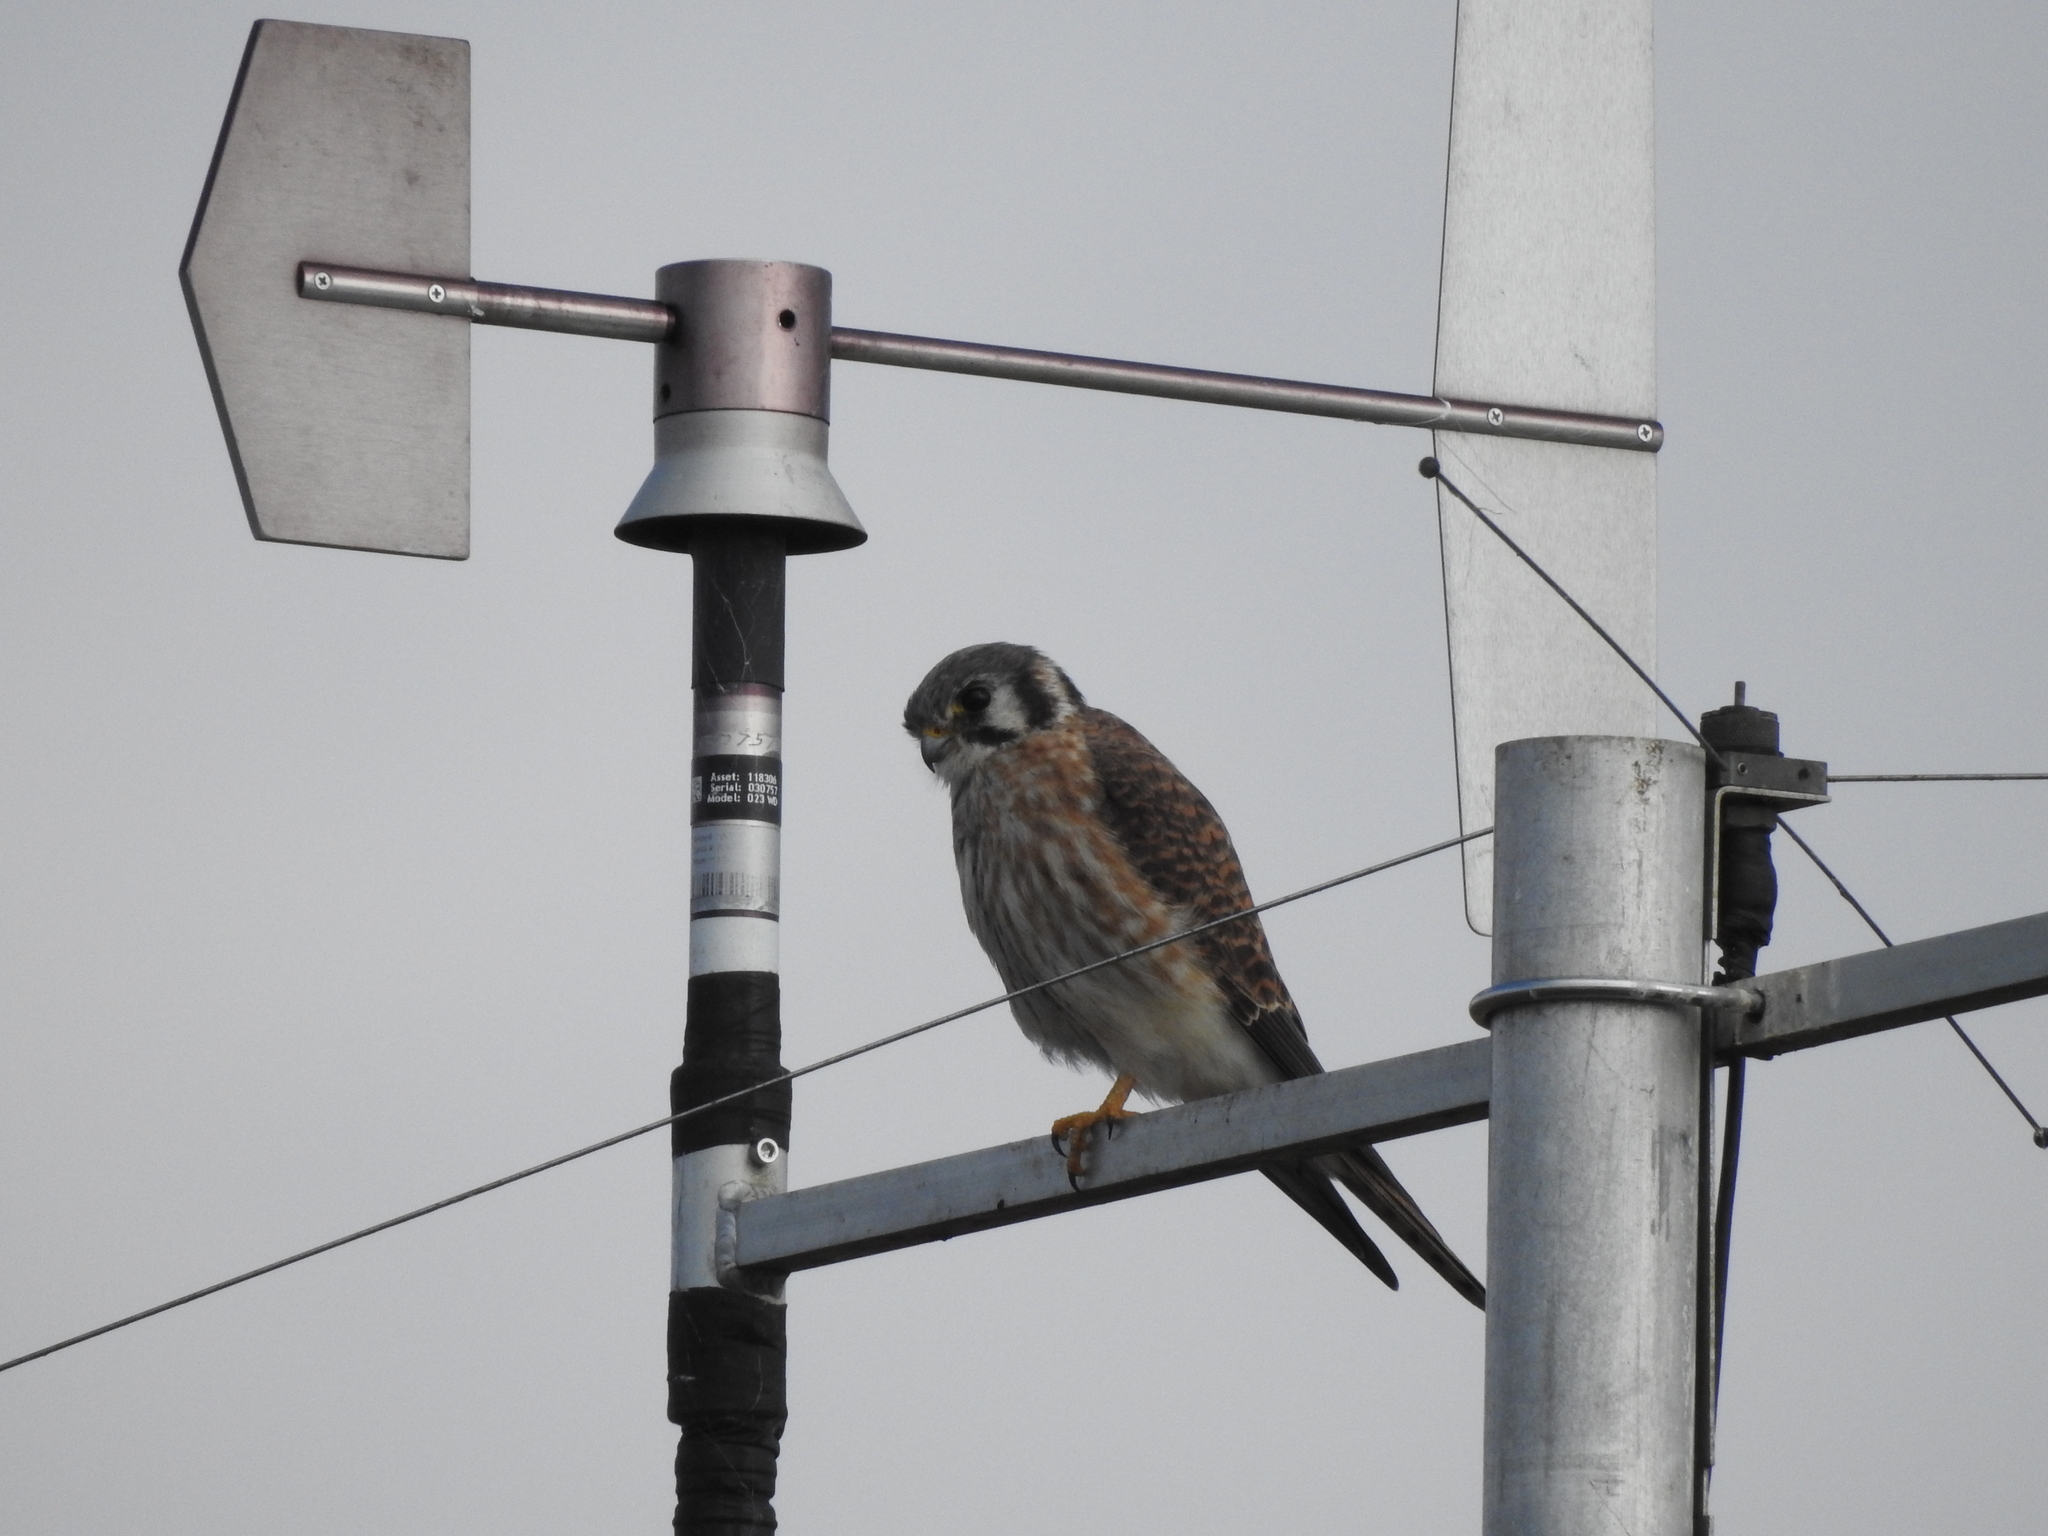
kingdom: Animalia
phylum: Chordata
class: Aves
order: Falconiformes
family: Falconidae
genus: Falco
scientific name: Falco sparverius
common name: American kestrel
